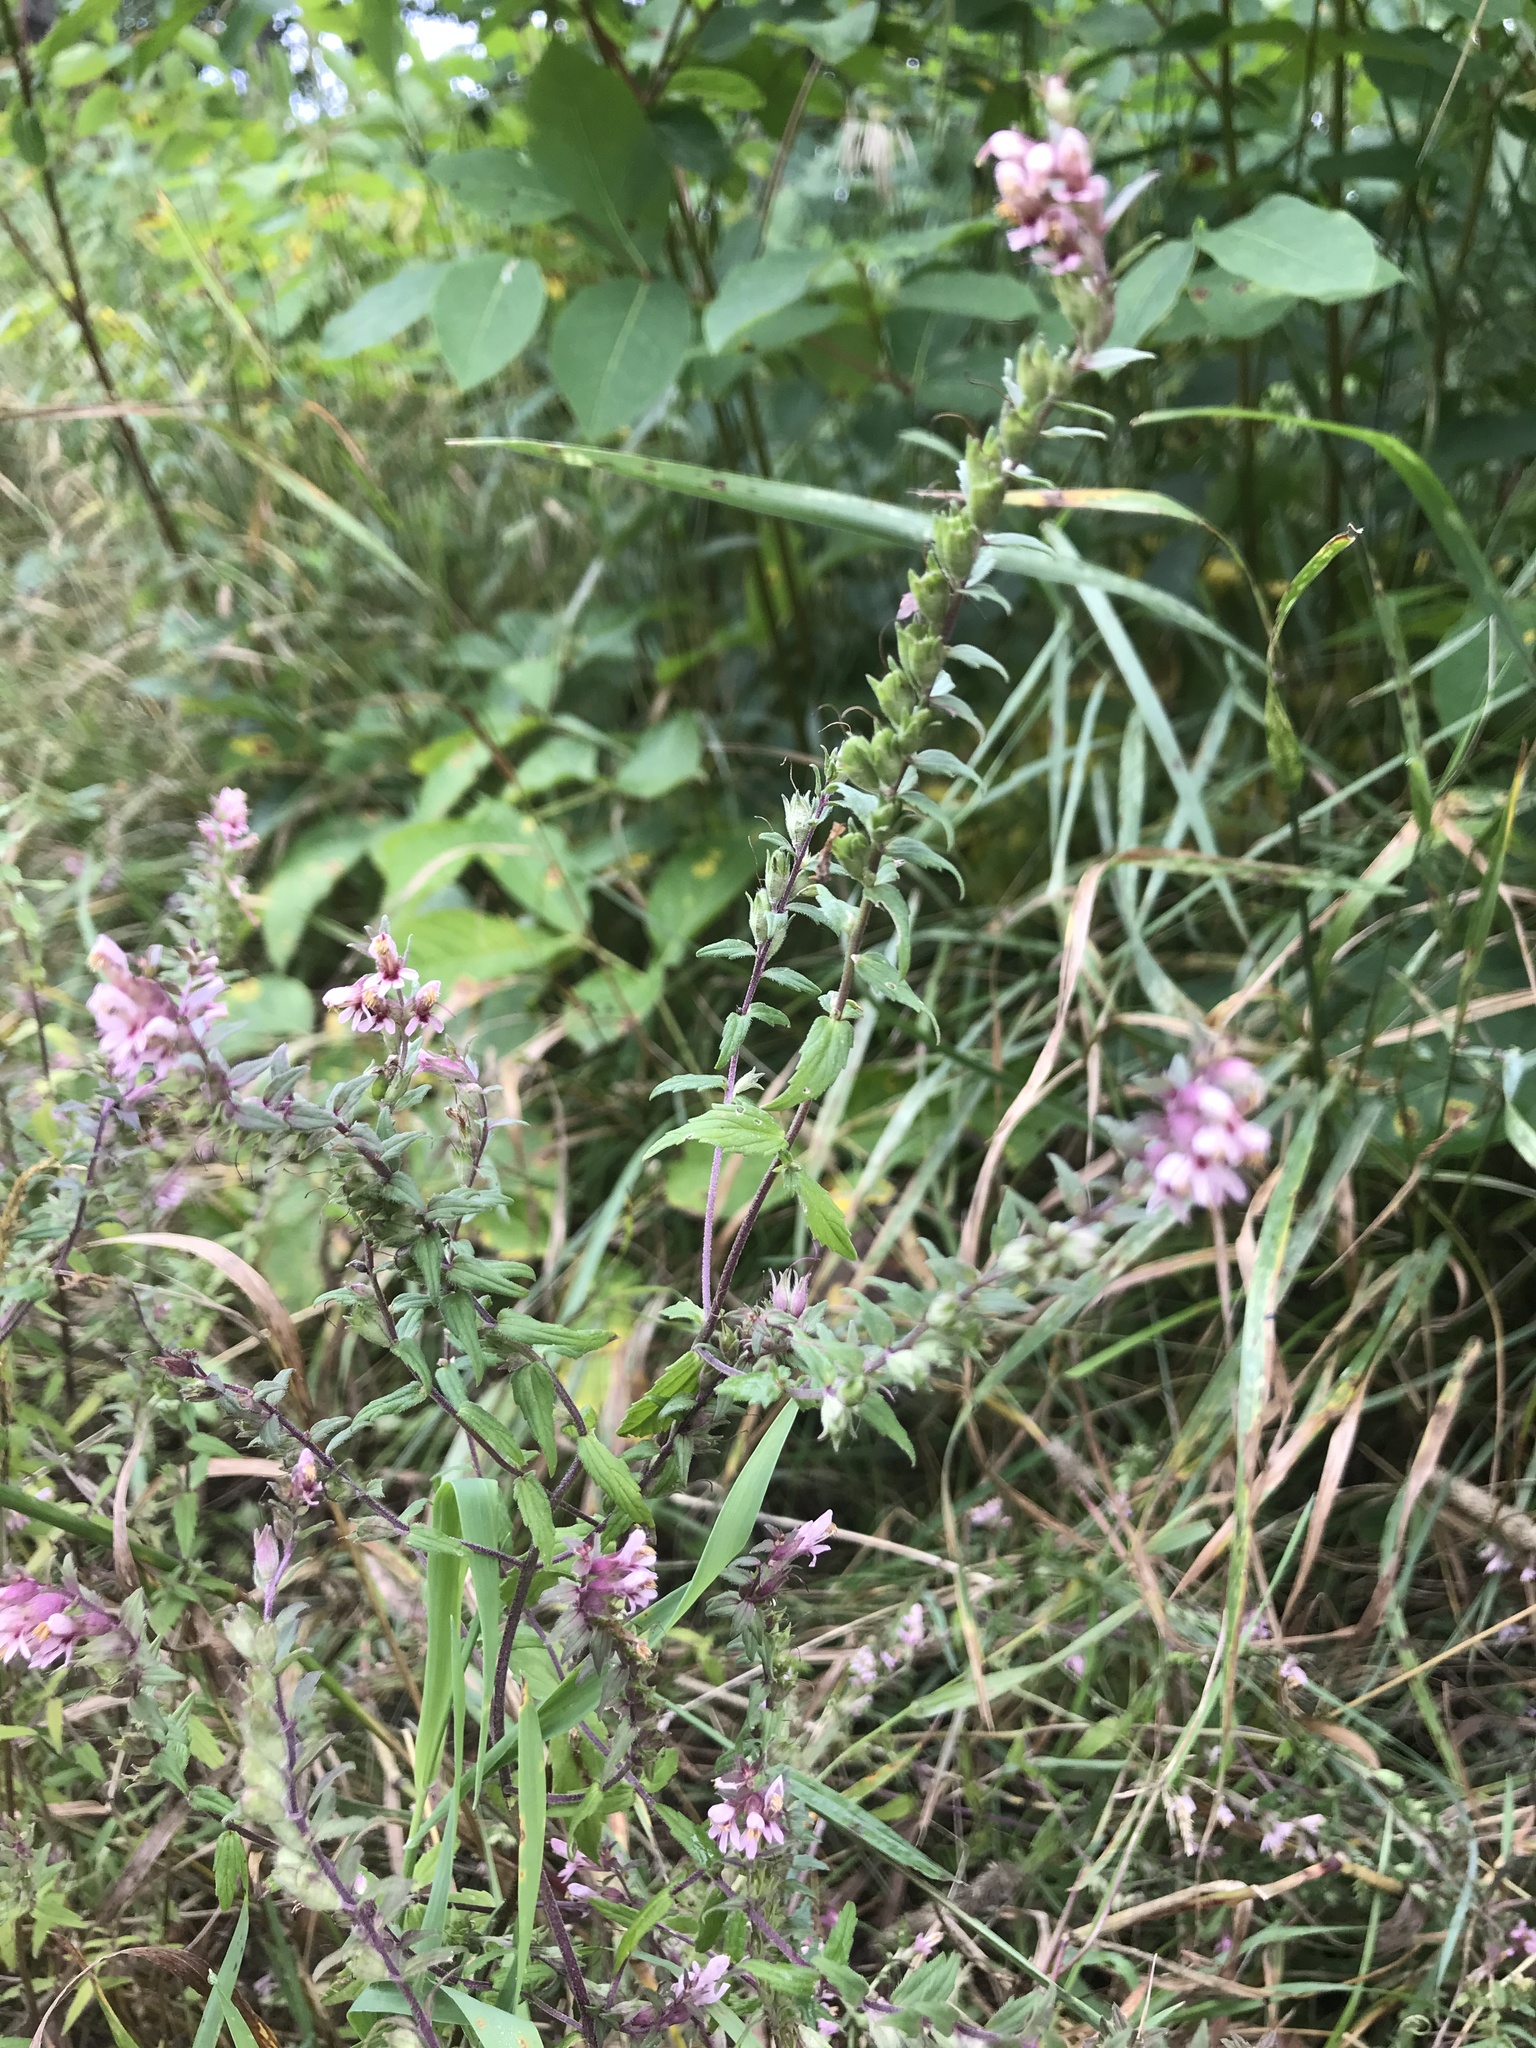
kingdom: Plantae
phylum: Tracheophyta
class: Magnoliopsida
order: Lamiales
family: Orobanchaceae
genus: Odontites
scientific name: Odontites vulgaris
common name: Broomrape
